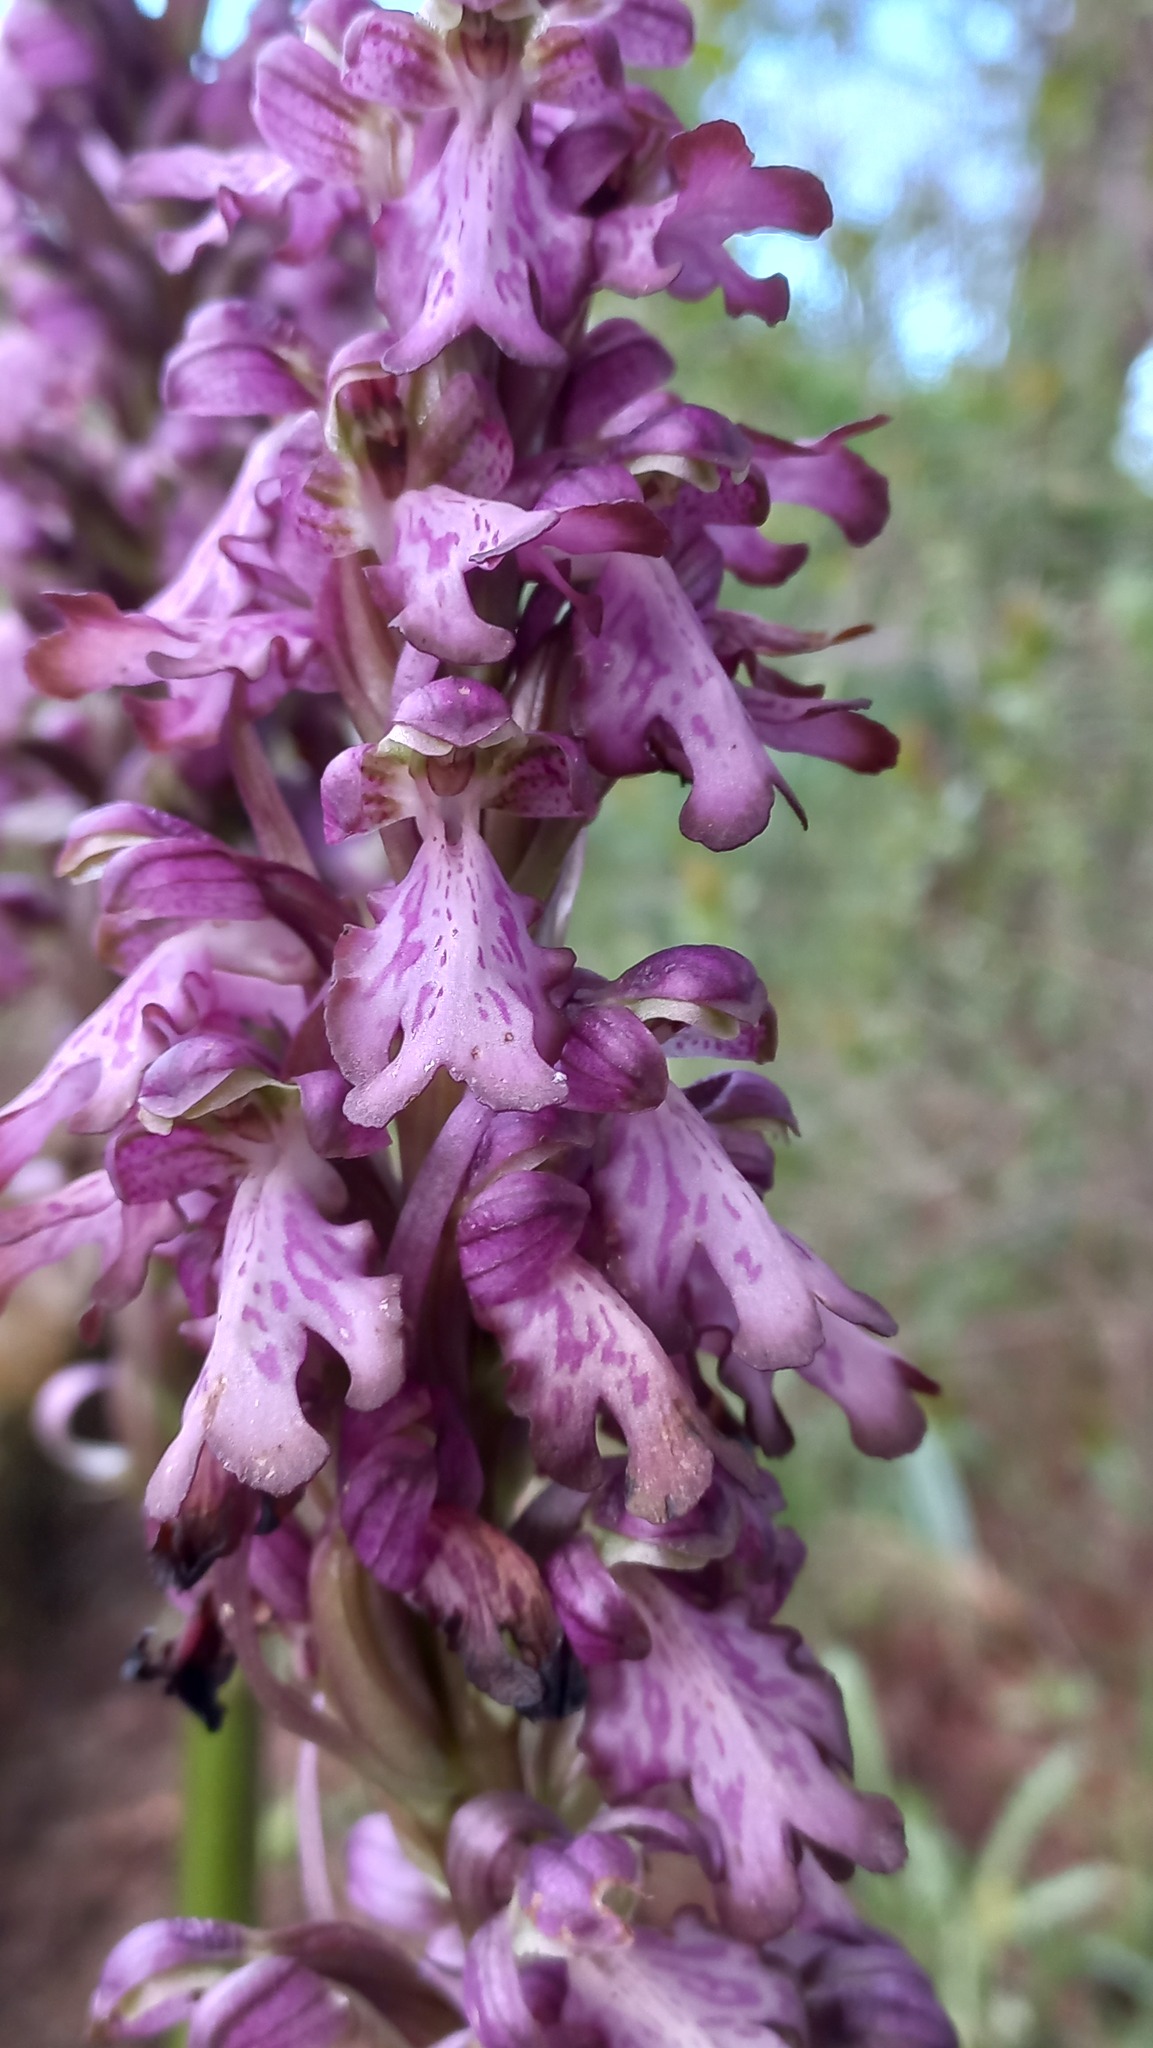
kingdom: Plantae
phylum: Tracheophyta
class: Liliopsida
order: Asparagales
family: Orchidaceae
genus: Himantoglossum
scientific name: Himantoglossum robertianum
